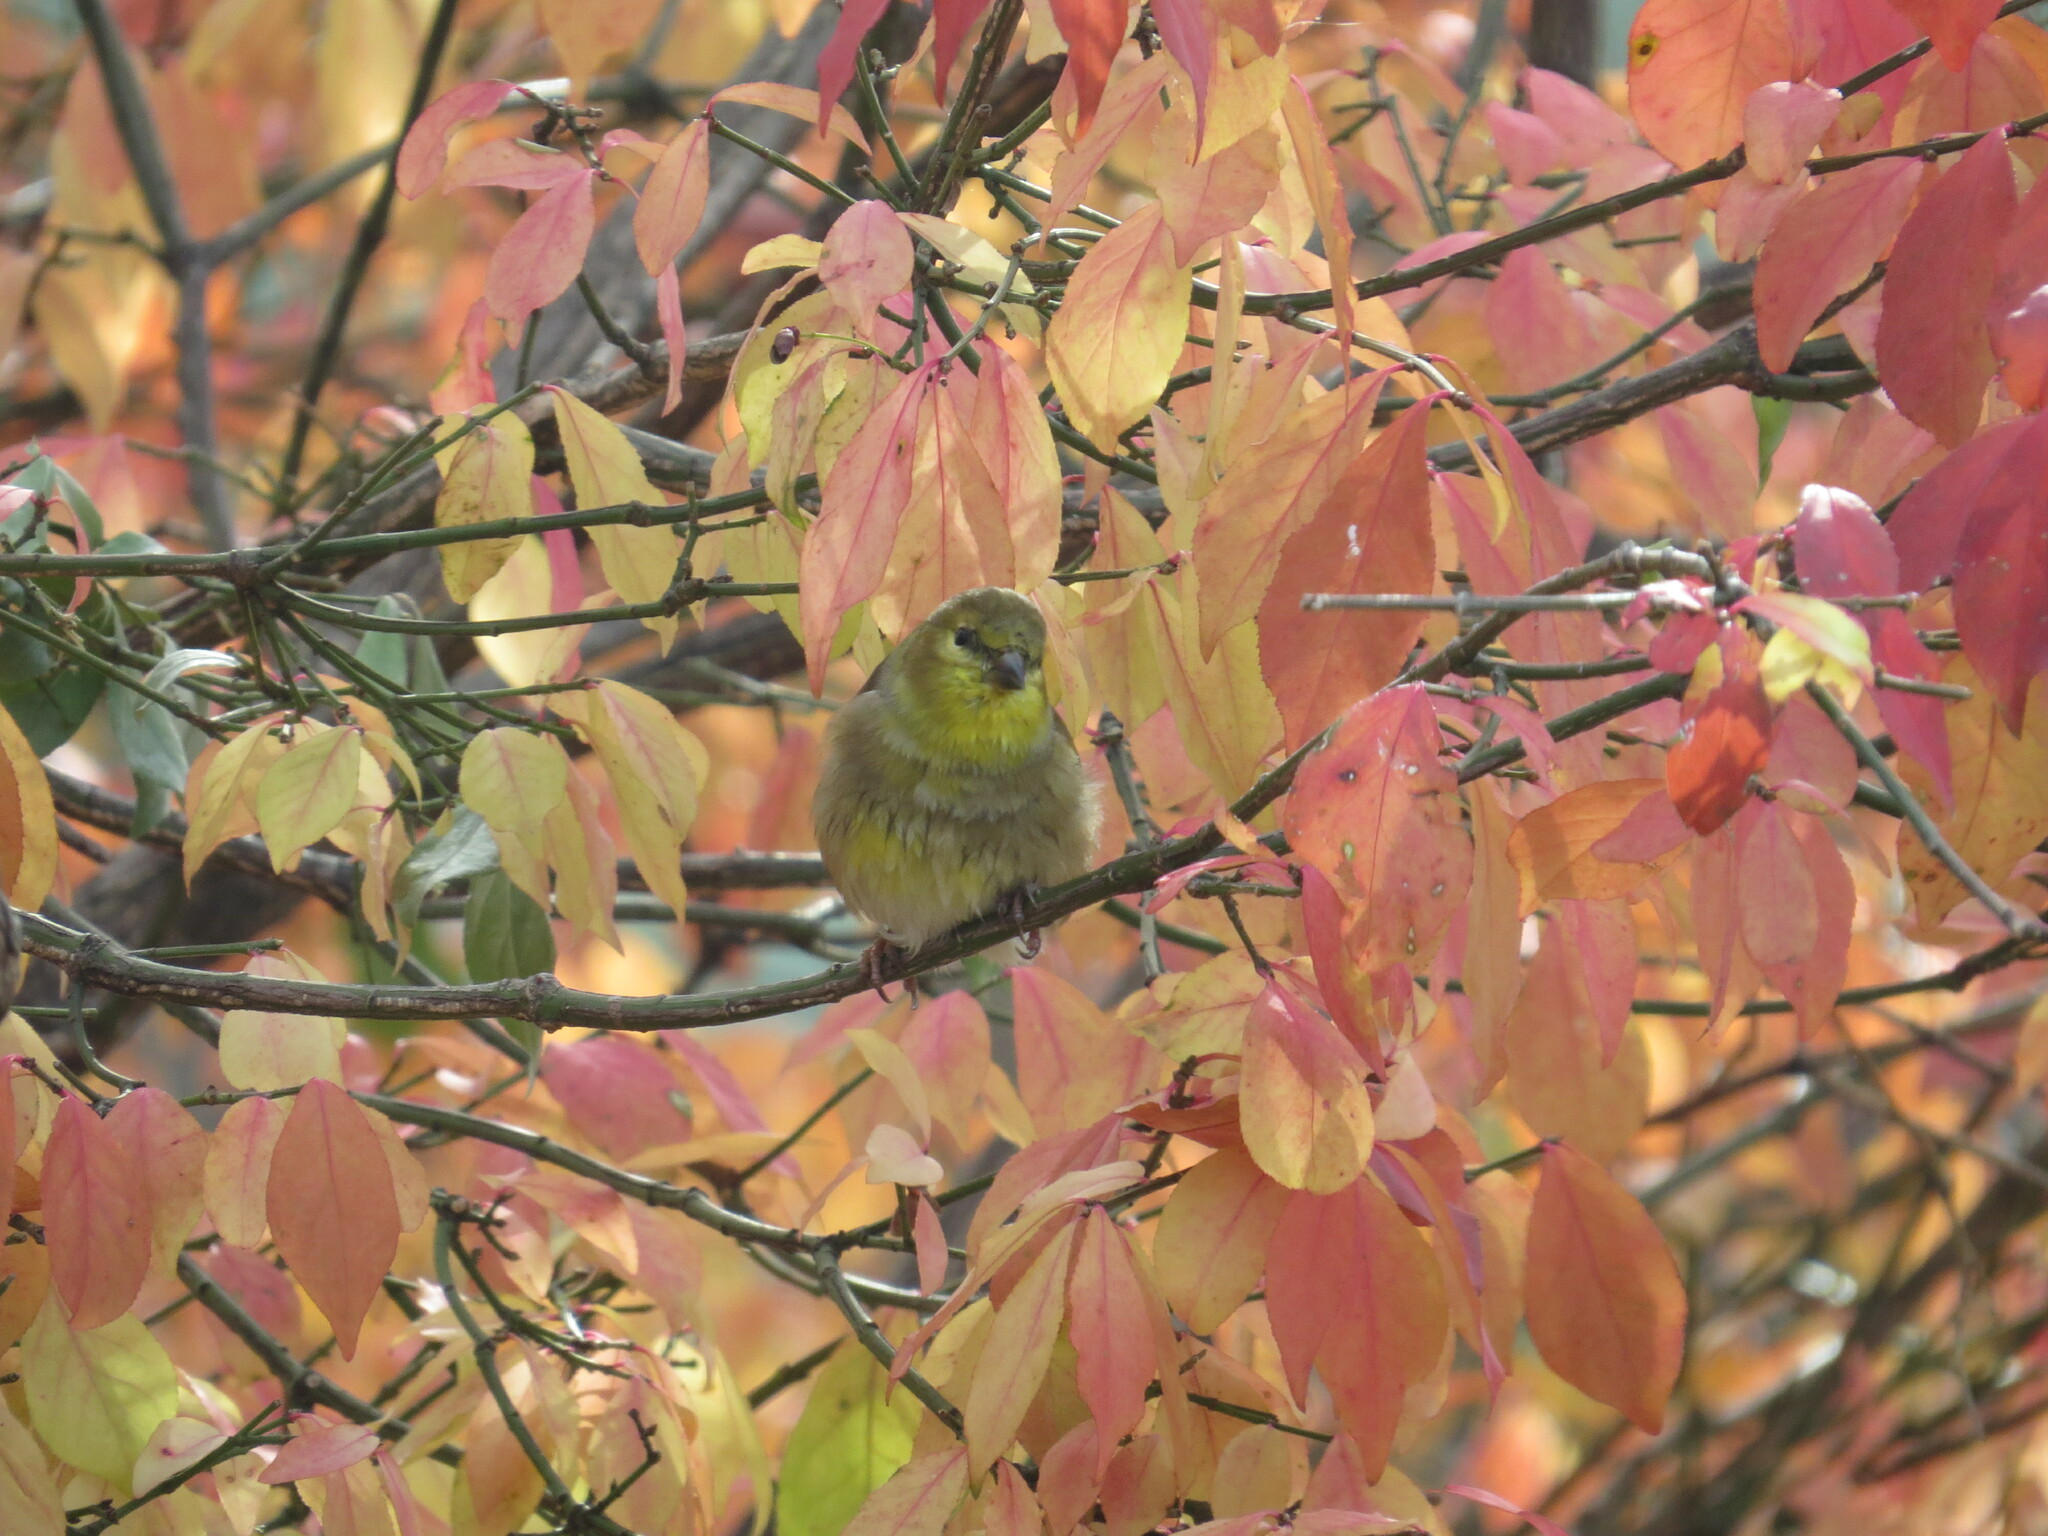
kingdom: Animalia
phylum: Chordata
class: Aves
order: Passeriformes
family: Fringillidae
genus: Spinus
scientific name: Spinus tristis
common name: American goldfinch
